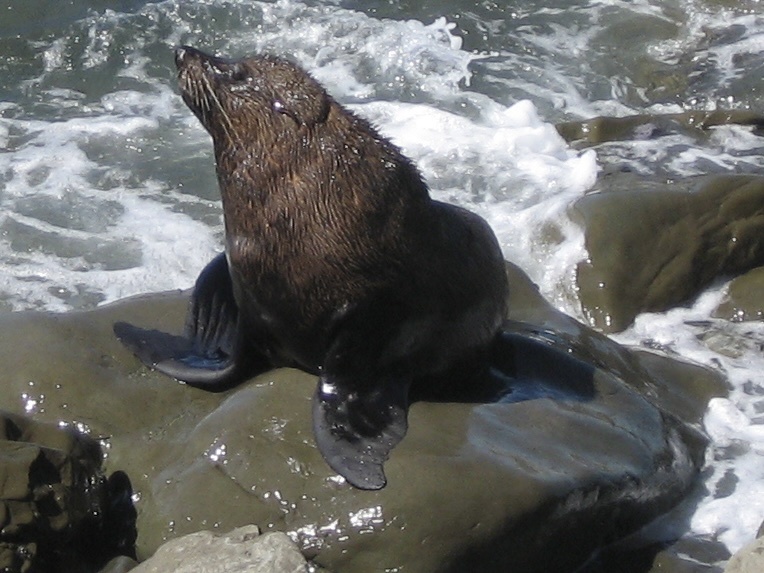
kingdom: Animalia
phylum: Chordata
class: Mammalia
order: Carnivora
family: Otariidae
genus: Arctocephalus
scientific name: Arctocephalus forsteri
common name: New zealand fur seal
